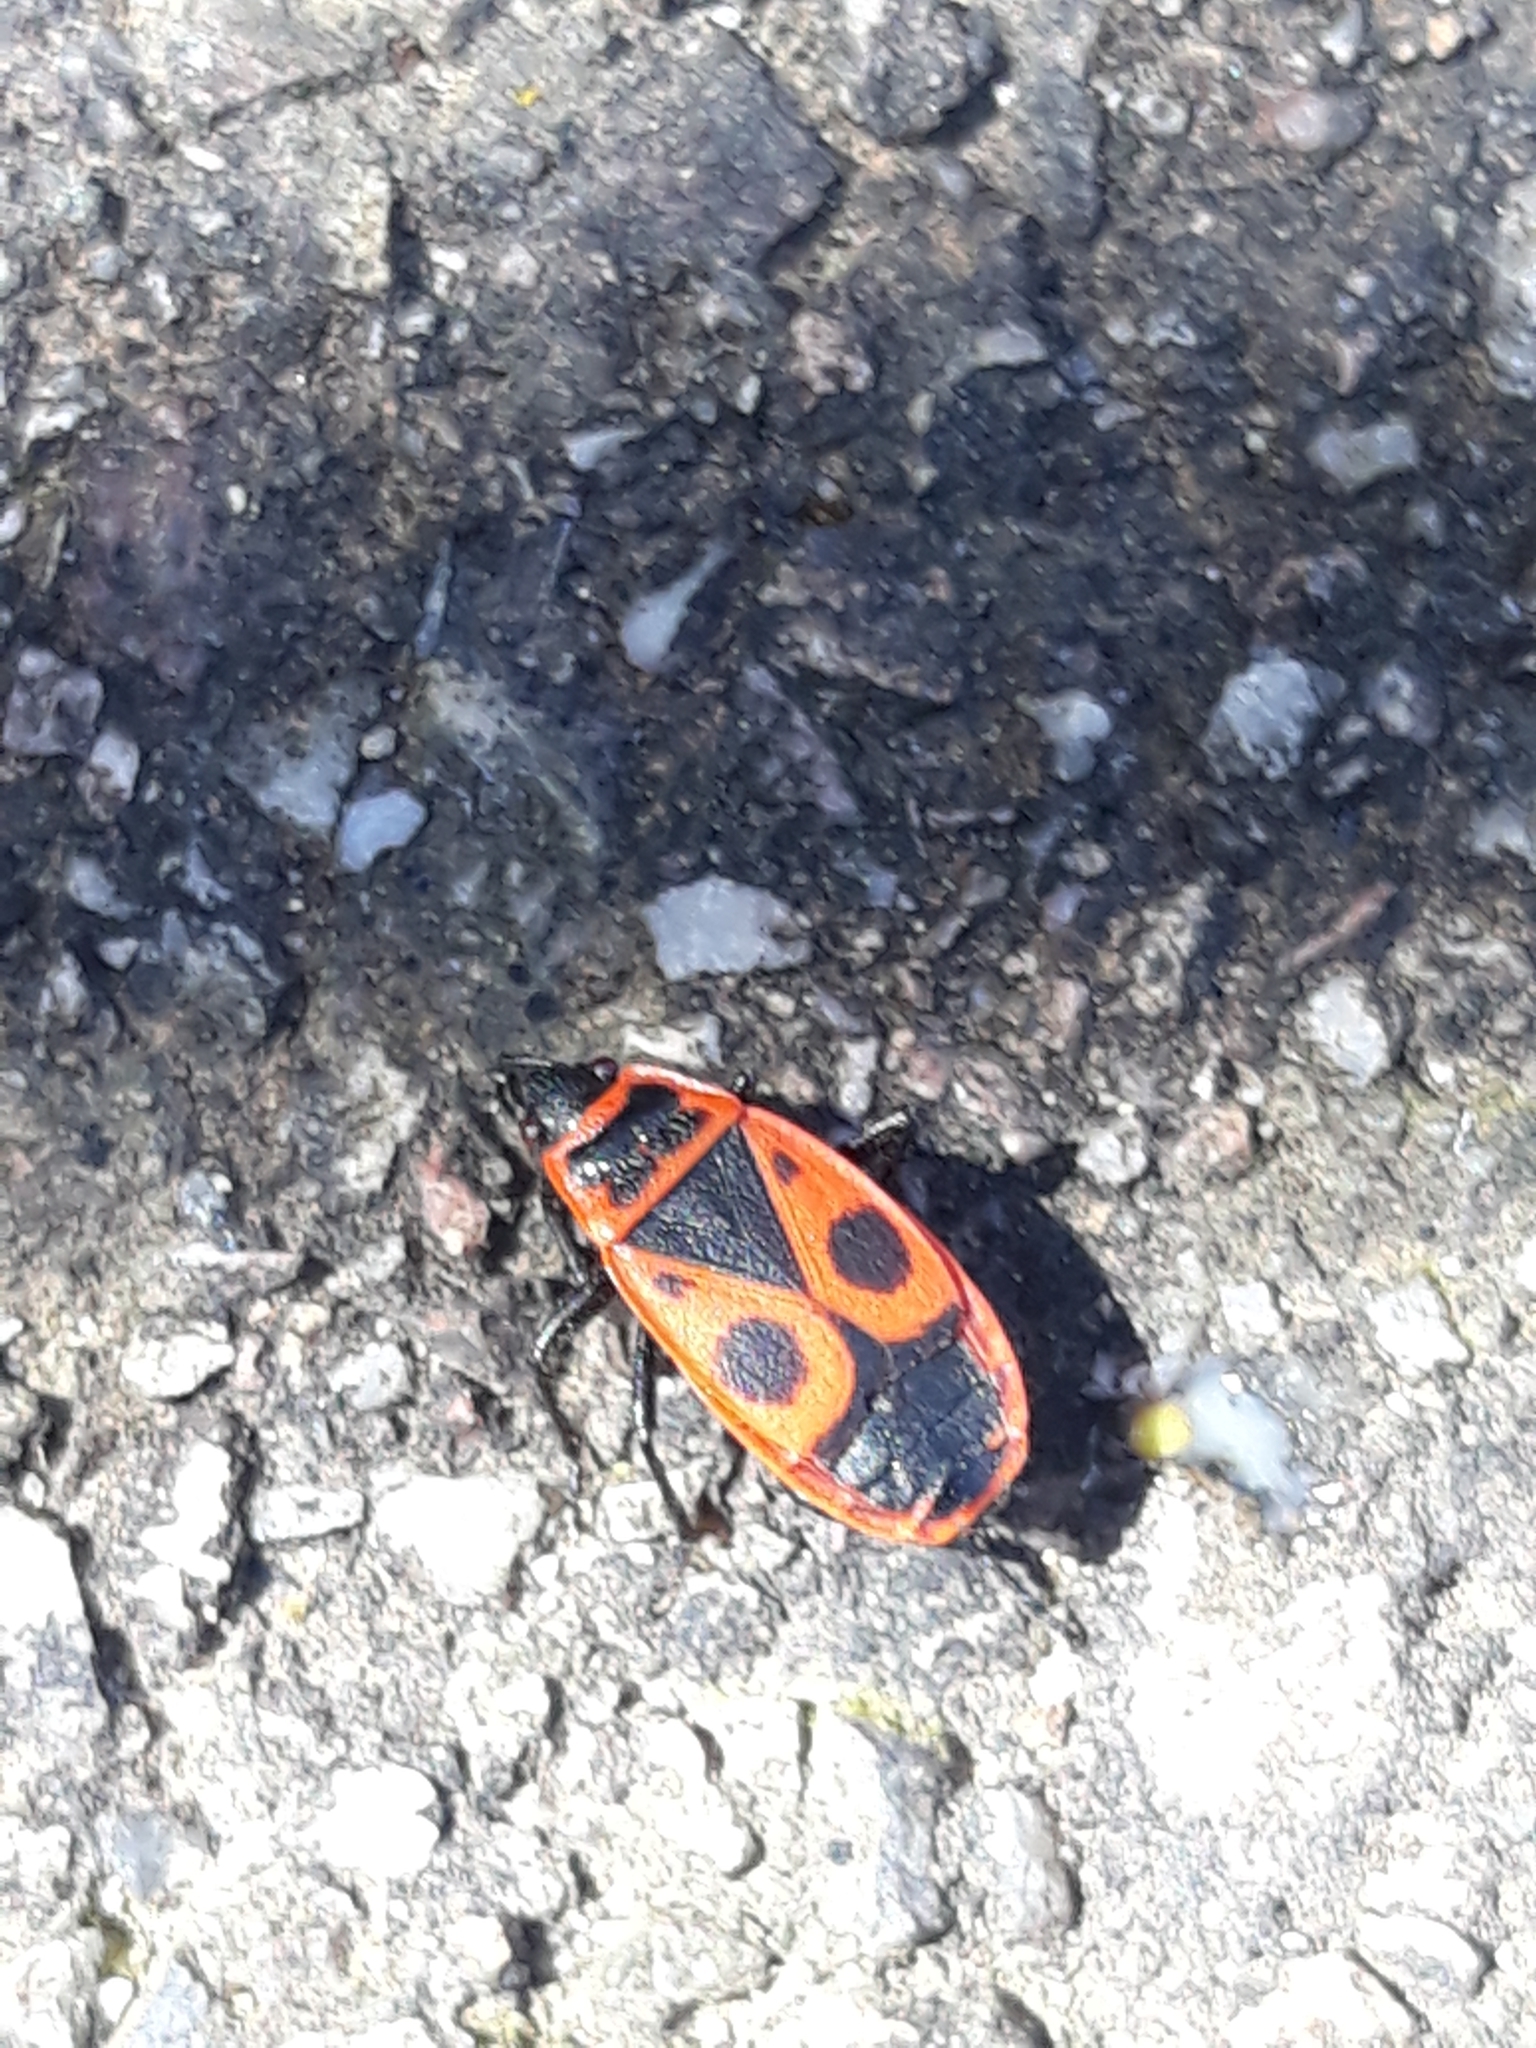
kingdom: Animalia
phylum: Arthropoda
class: Insecta
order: Hemiptera
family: Pyrrhocoridae
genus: Pyrrhocoris
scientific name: Pyrrhocoris apterus
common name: Firebug
